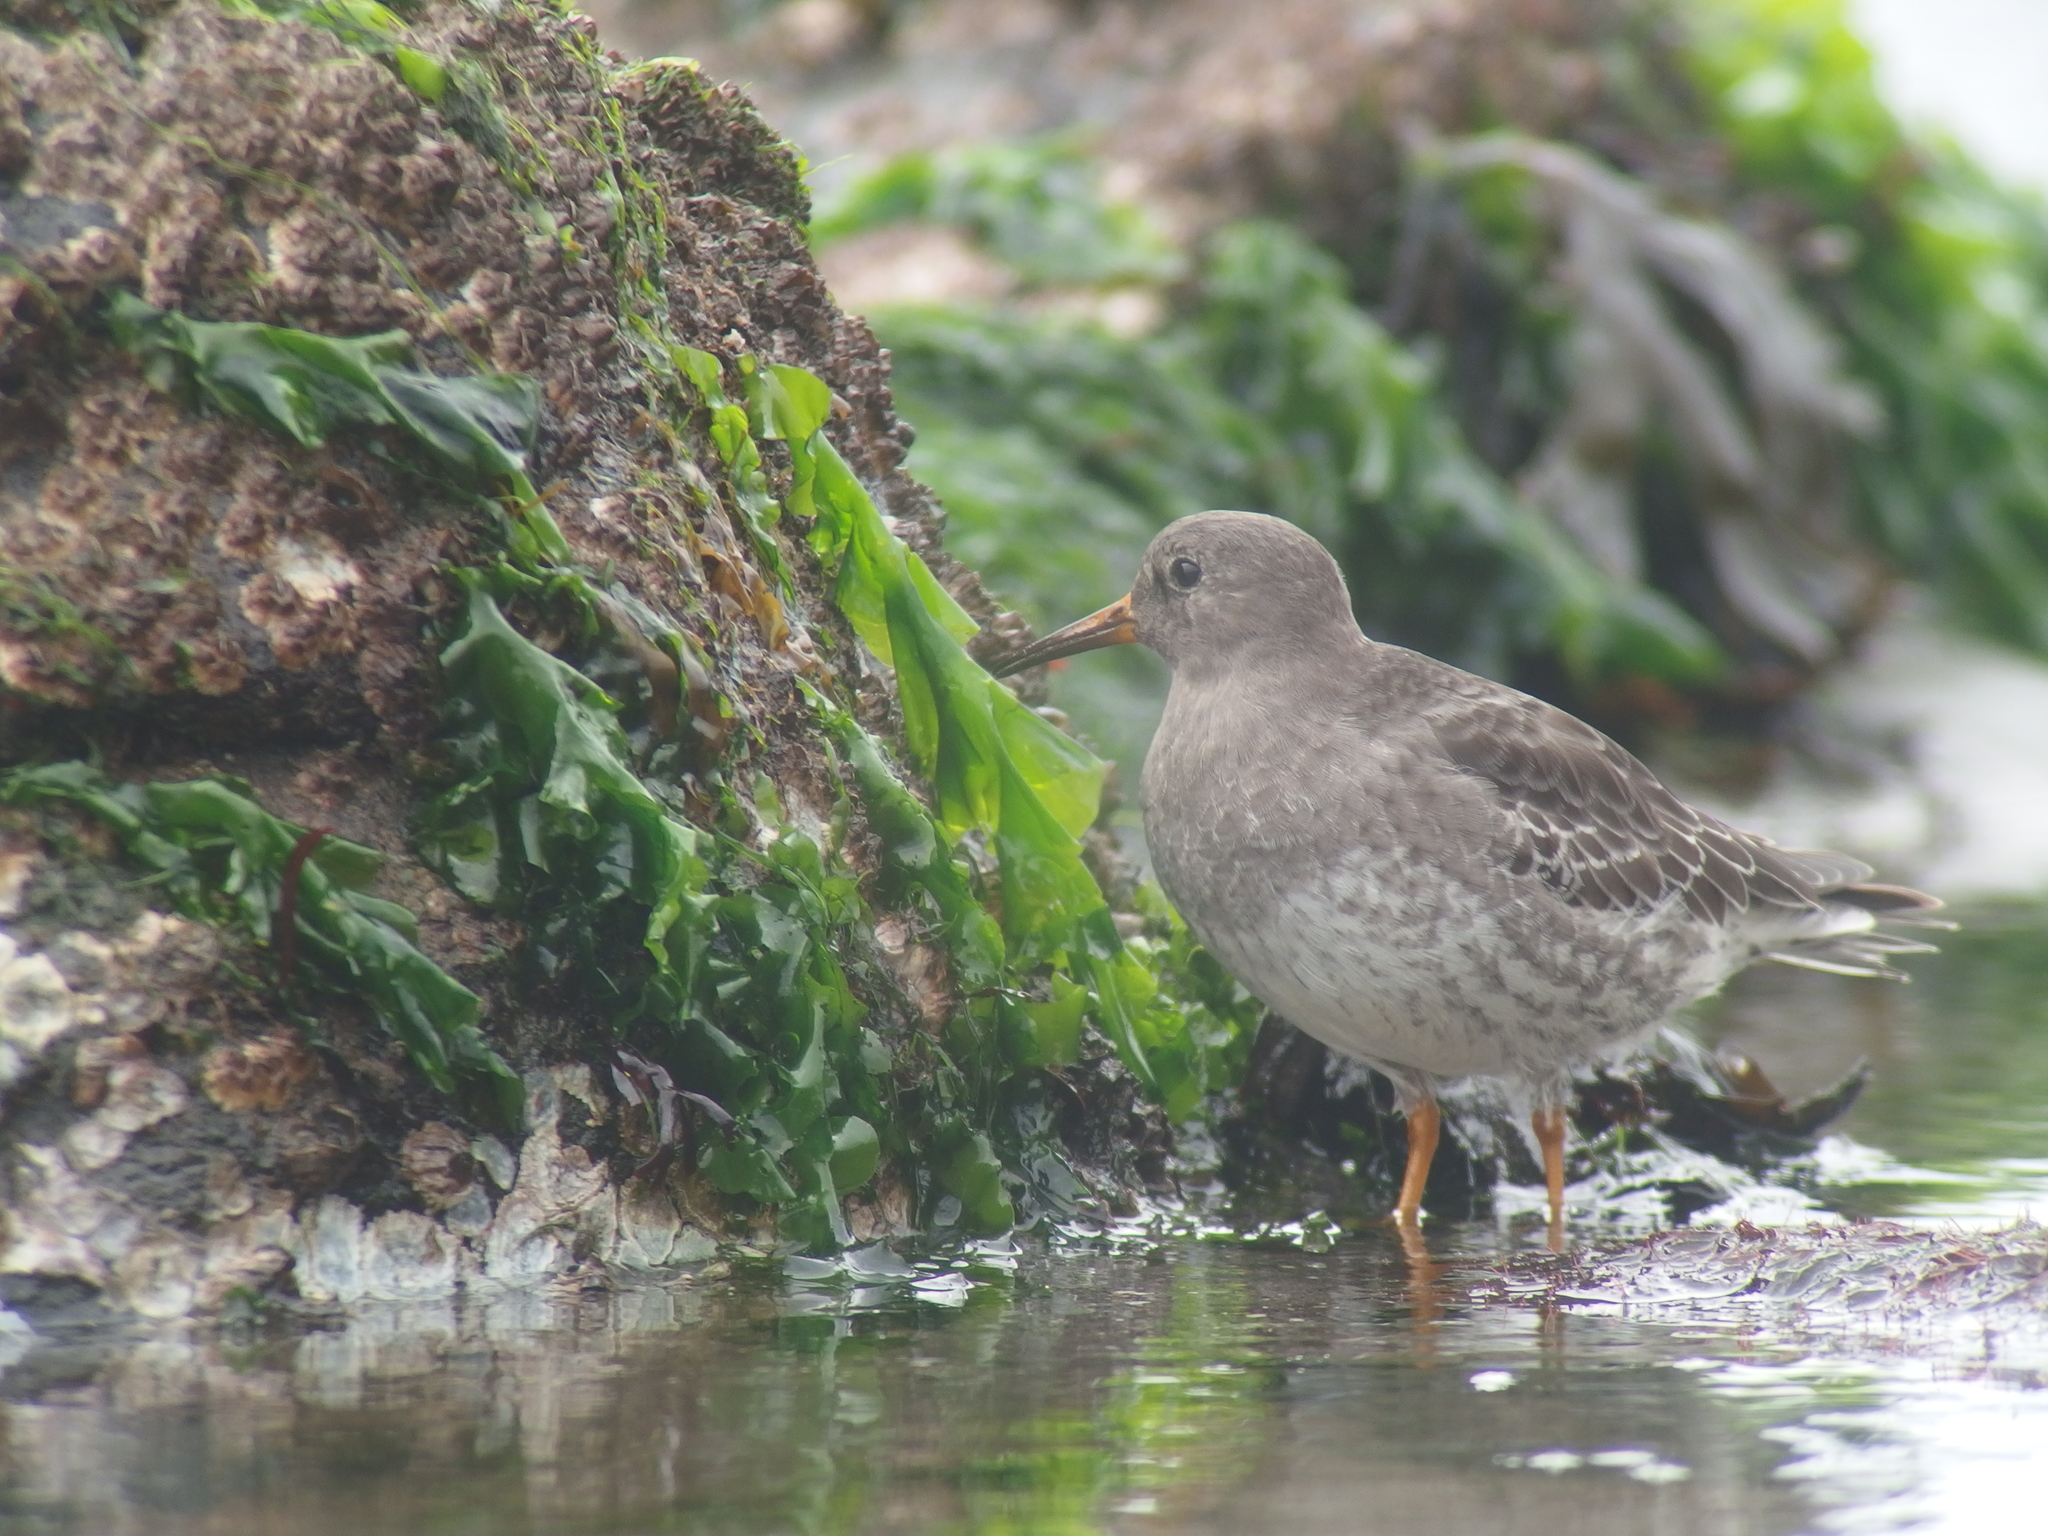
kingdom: Animalia
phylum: Chordata
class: Aves
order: Charadriiformes
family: Scolopacidae
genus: Calidris
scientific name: Calidris maritima
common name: Purple sandpiper
